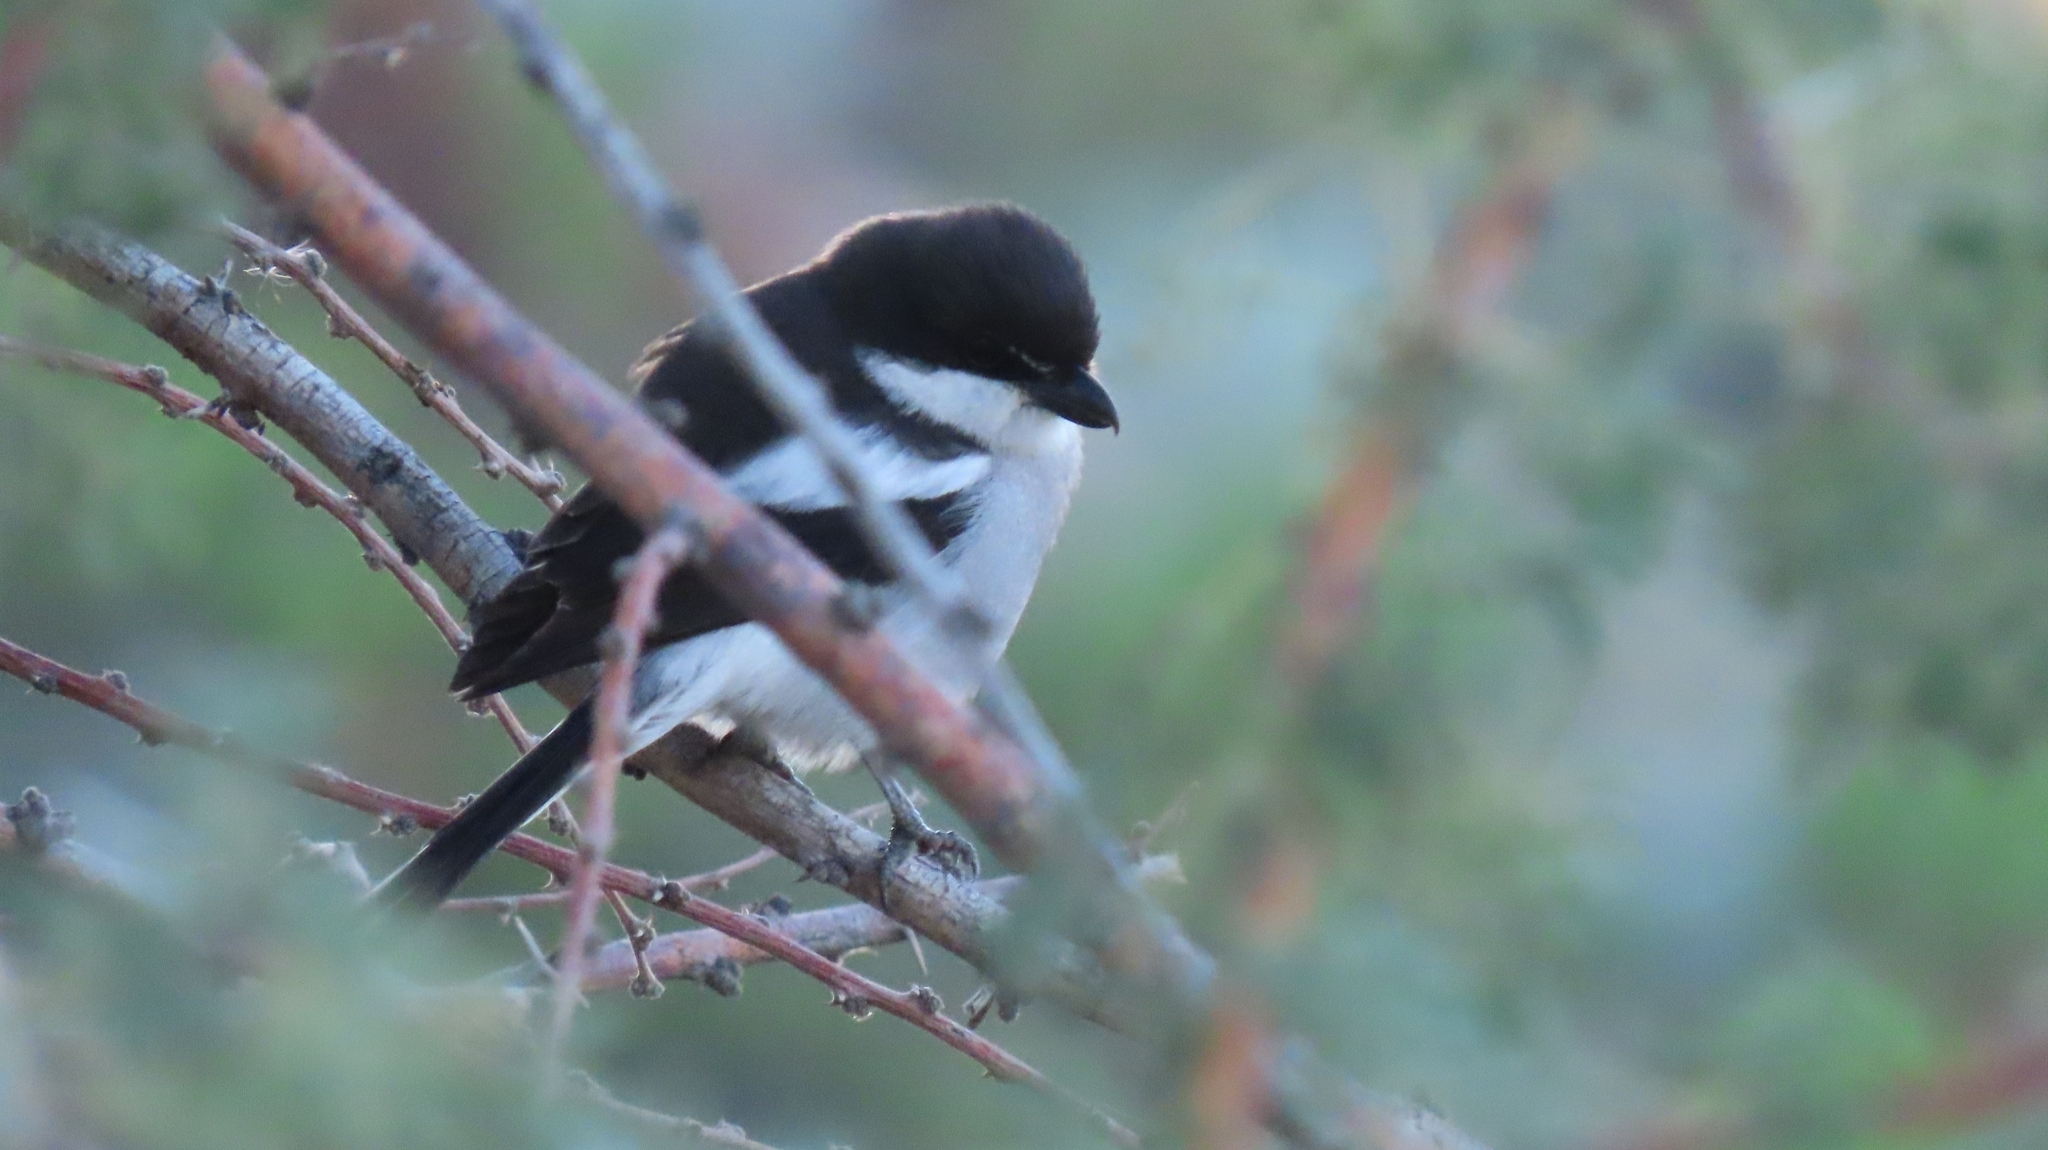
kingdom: Animalia
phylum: Chordata
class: Aves
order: Passeriformes
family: Laniidae
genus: Lanius
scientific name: Lanius collaris
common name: Southern fiscal
